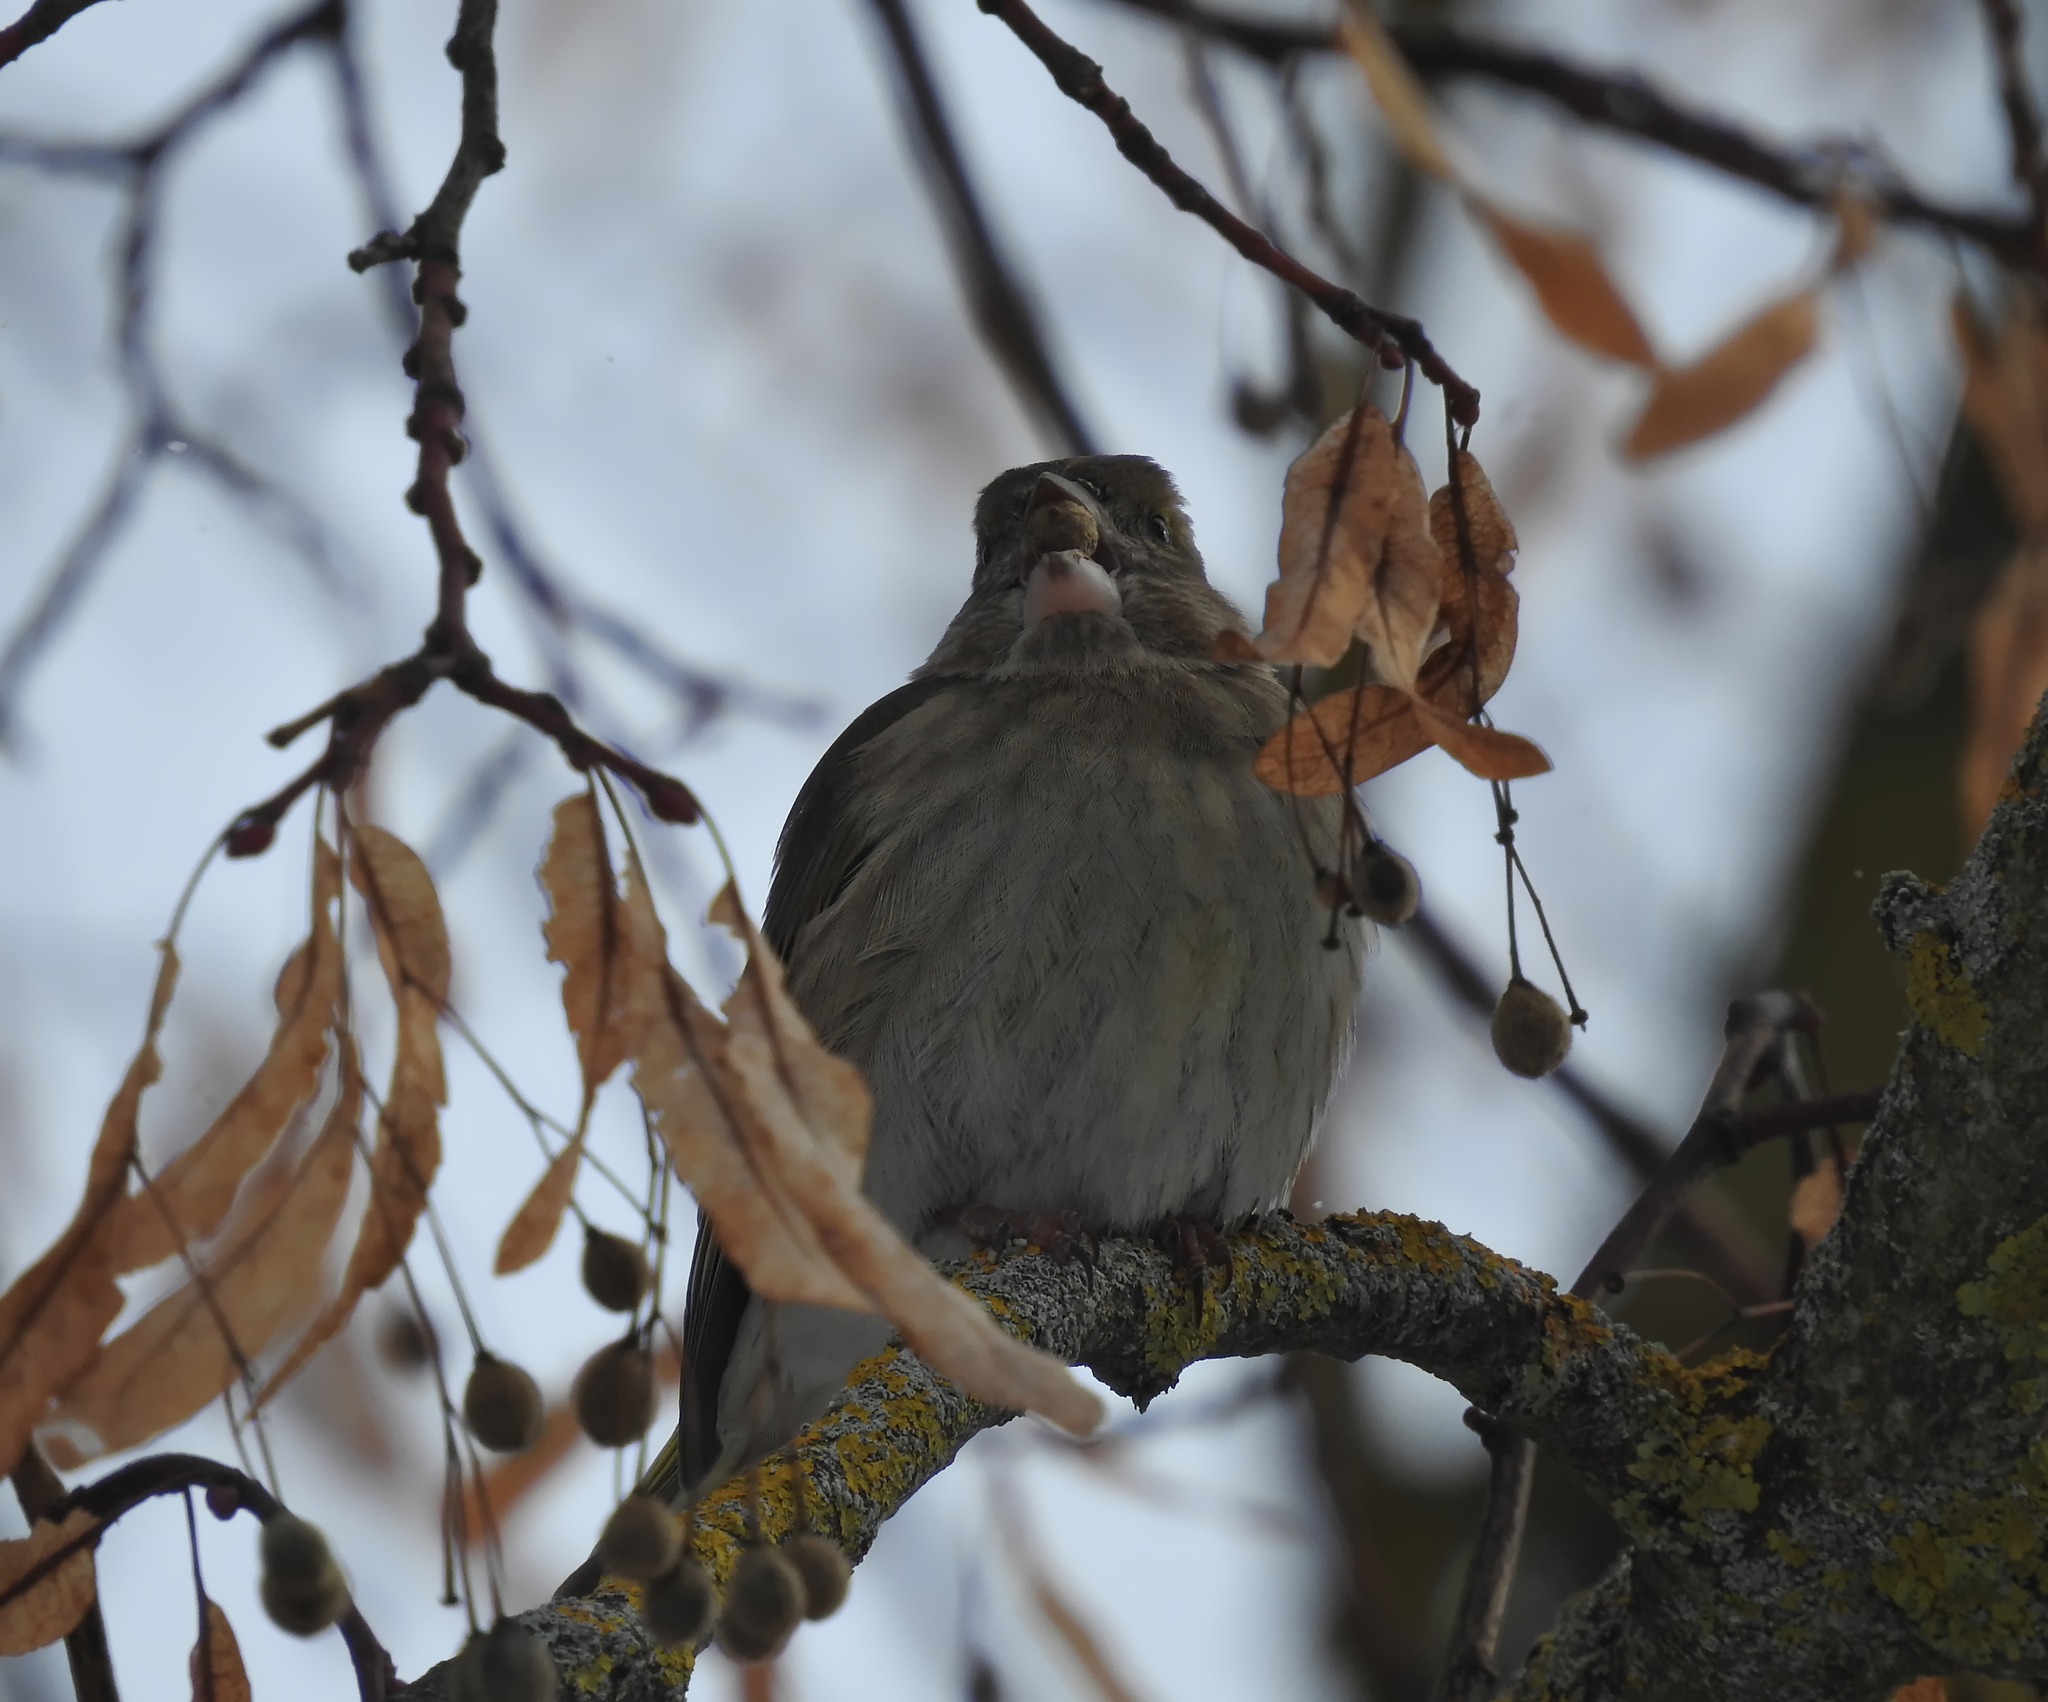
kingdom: Plantae
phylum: Tracheophyta
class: Liliopsida
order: Poales
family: Poaceae
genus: Chloris
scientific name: Chloris chloris
